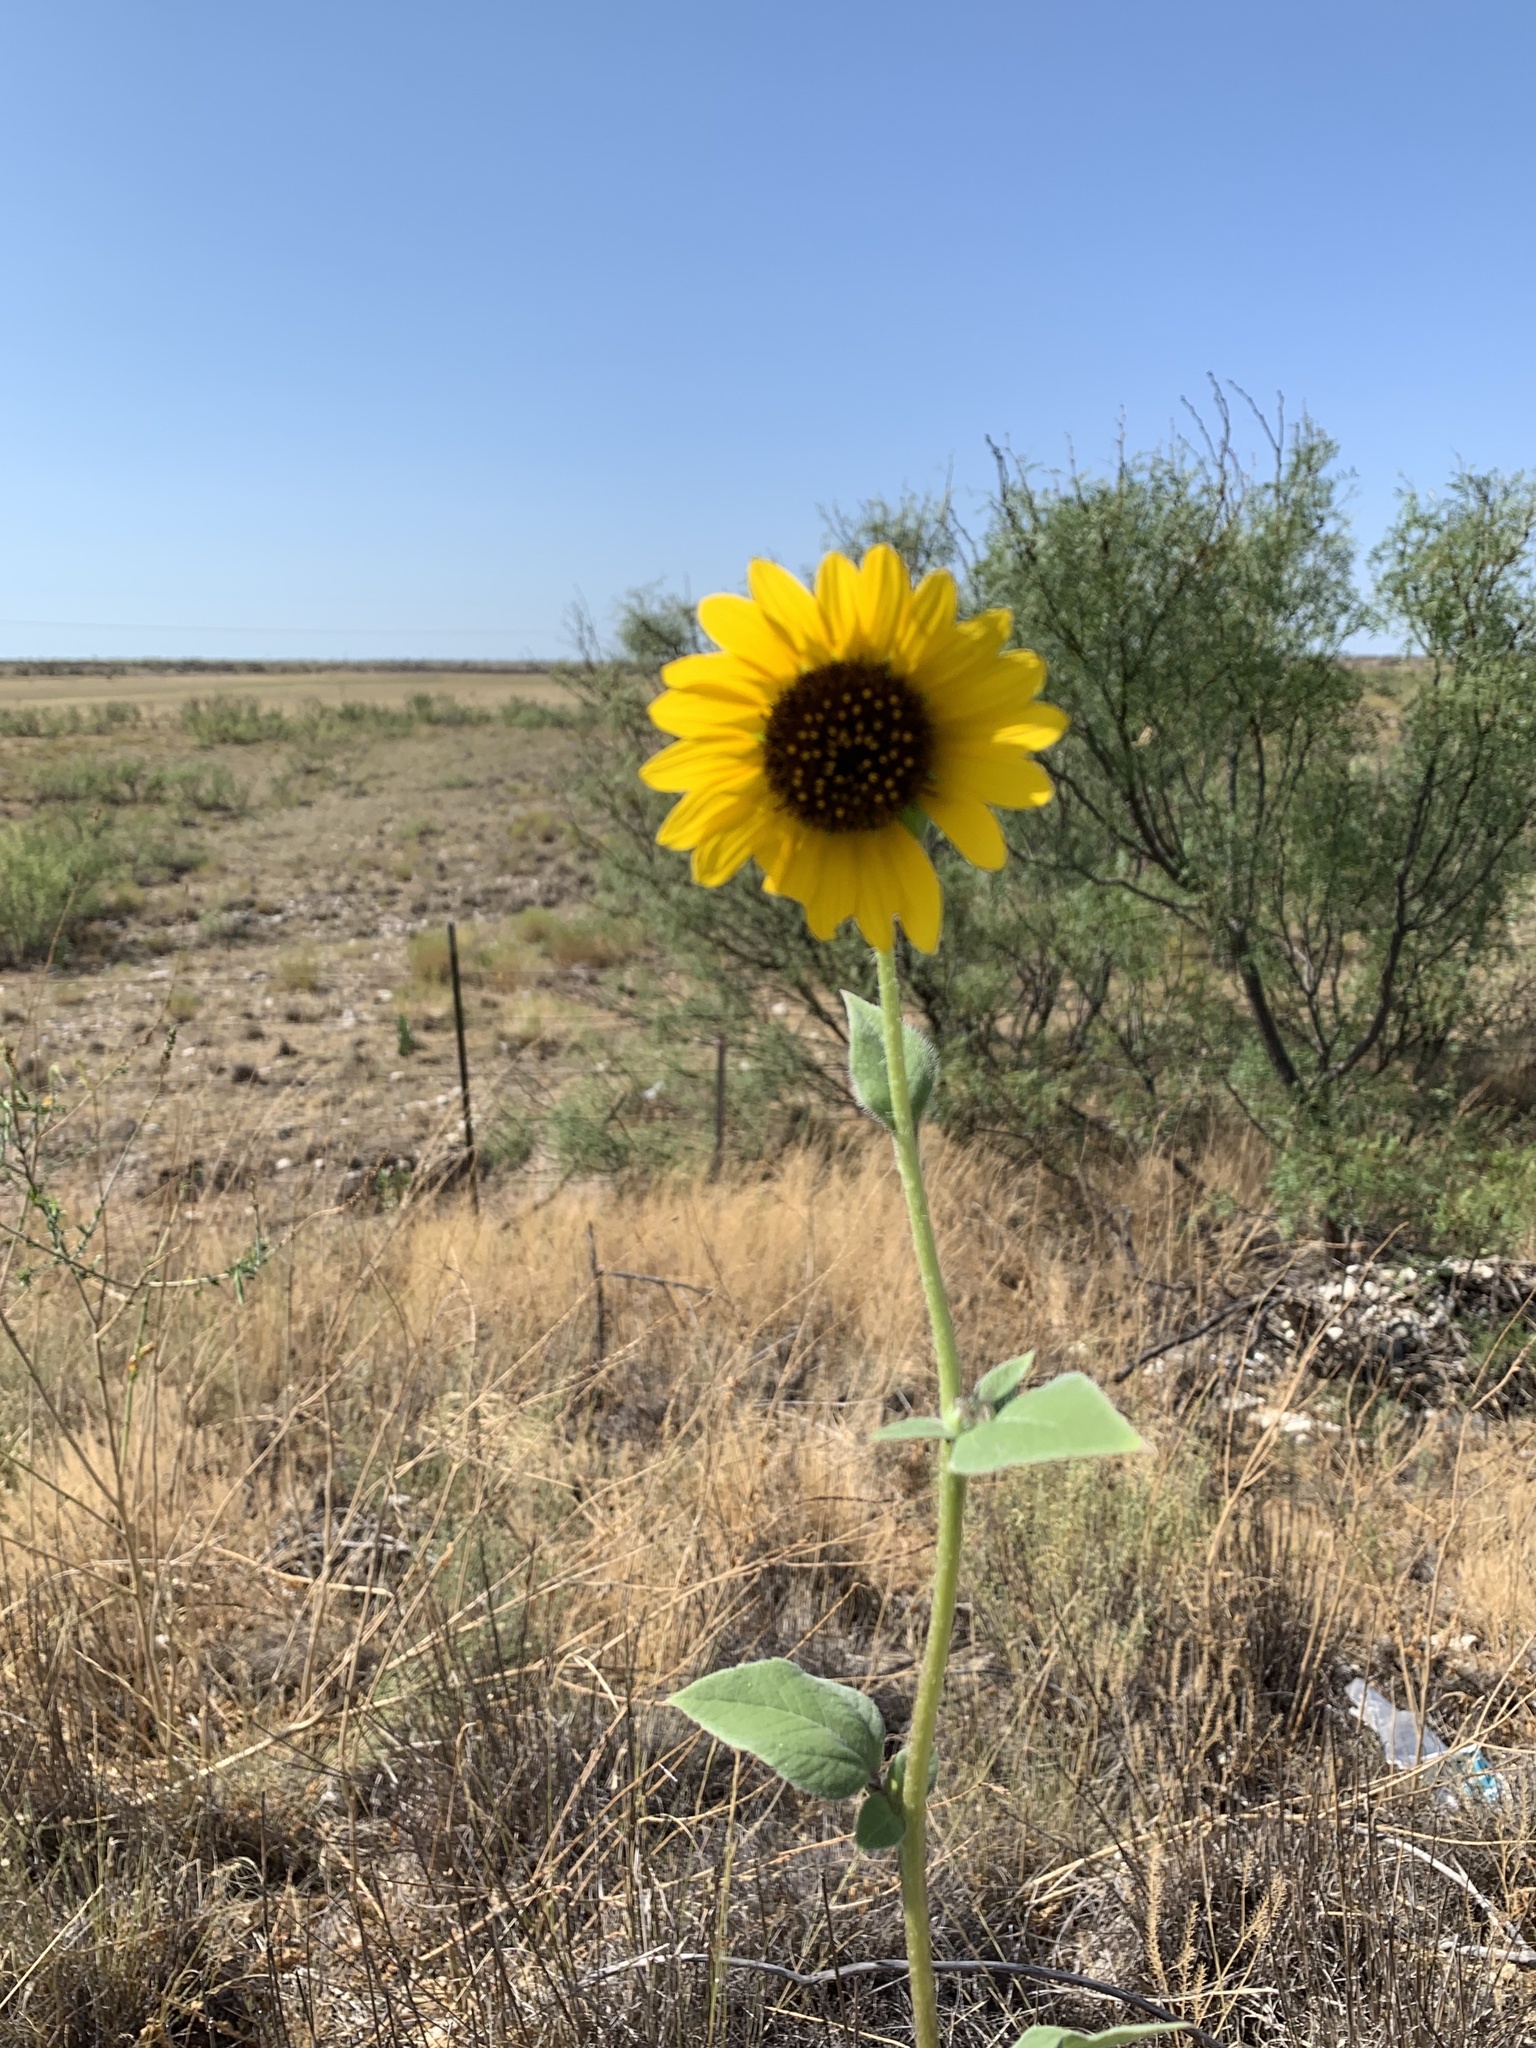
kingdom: Plantae
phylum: Tracheophyta
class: Magnoliopsida
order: Asterales
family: Asteraceae
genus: Helianthus
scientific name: Helianthus annuus
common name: Sunflower
